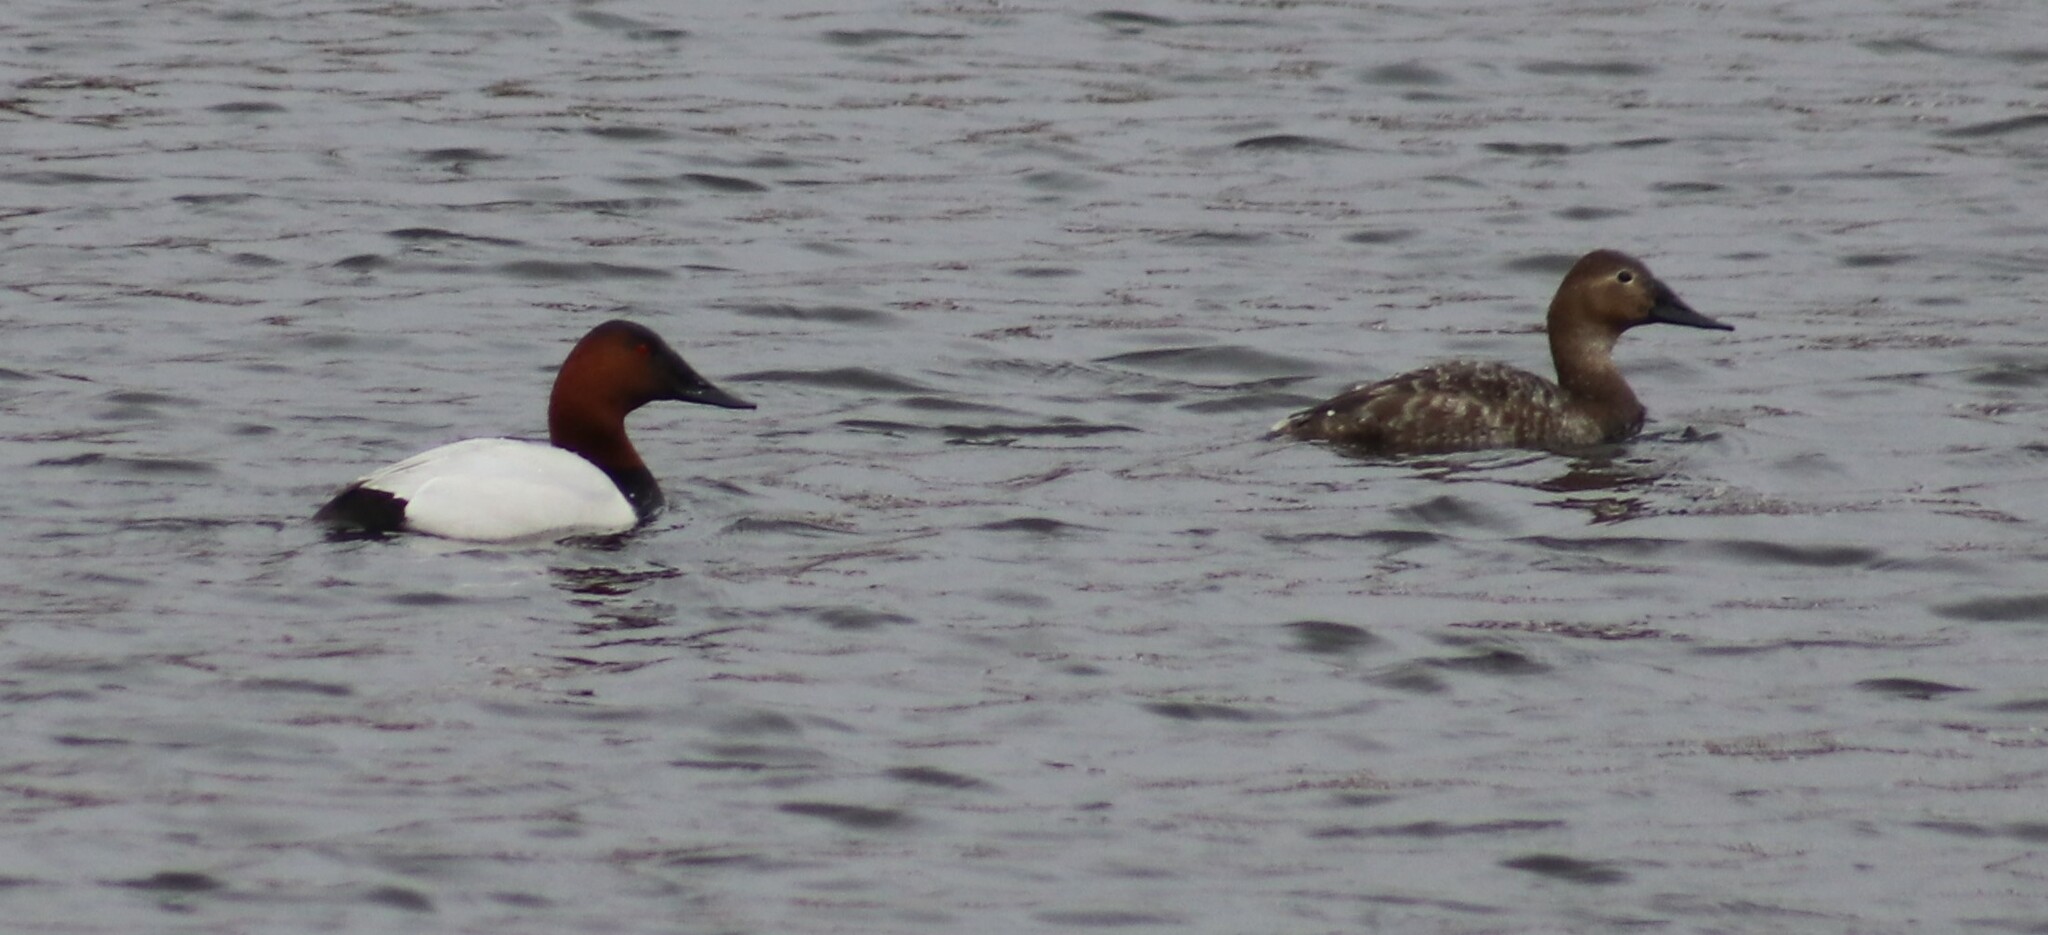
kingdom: Animalia
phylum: Chordata
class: Aves
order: Anseriformes
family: Anatidae
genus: Aythya
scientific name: Aythya valisineria
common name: Canvasback
